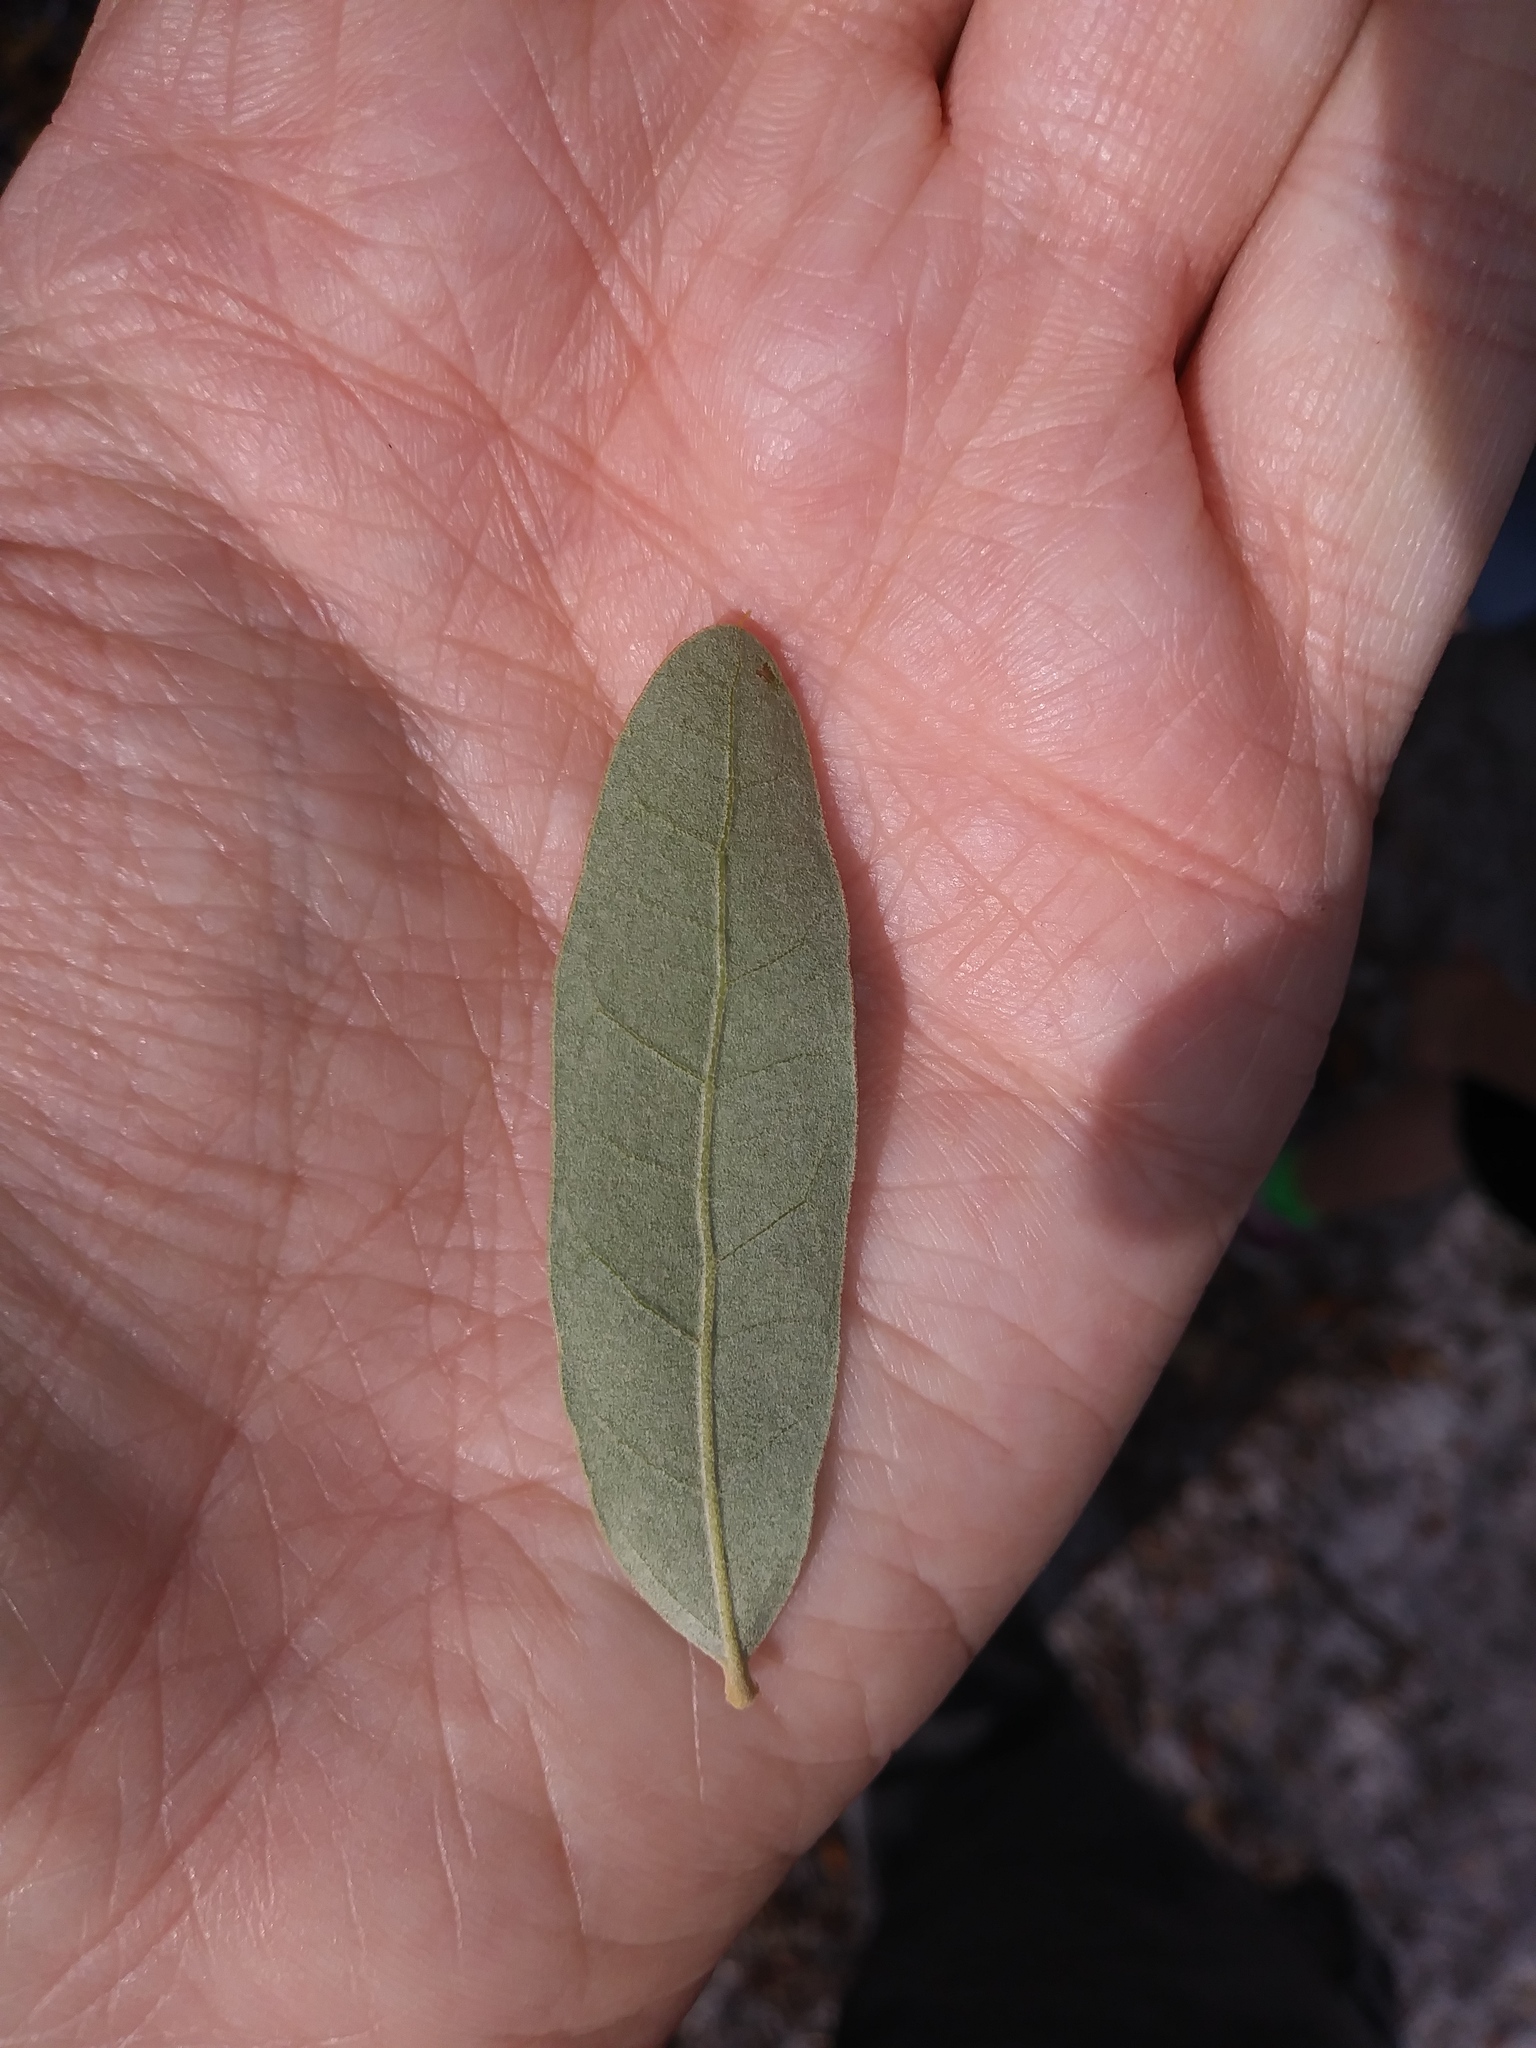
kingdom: Plantae
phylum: Tracheophyta
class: Magnoliopsida
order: Fagales
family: Fagaceae
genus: Quercus
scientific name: Quercus incana
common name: Bluejack oak
